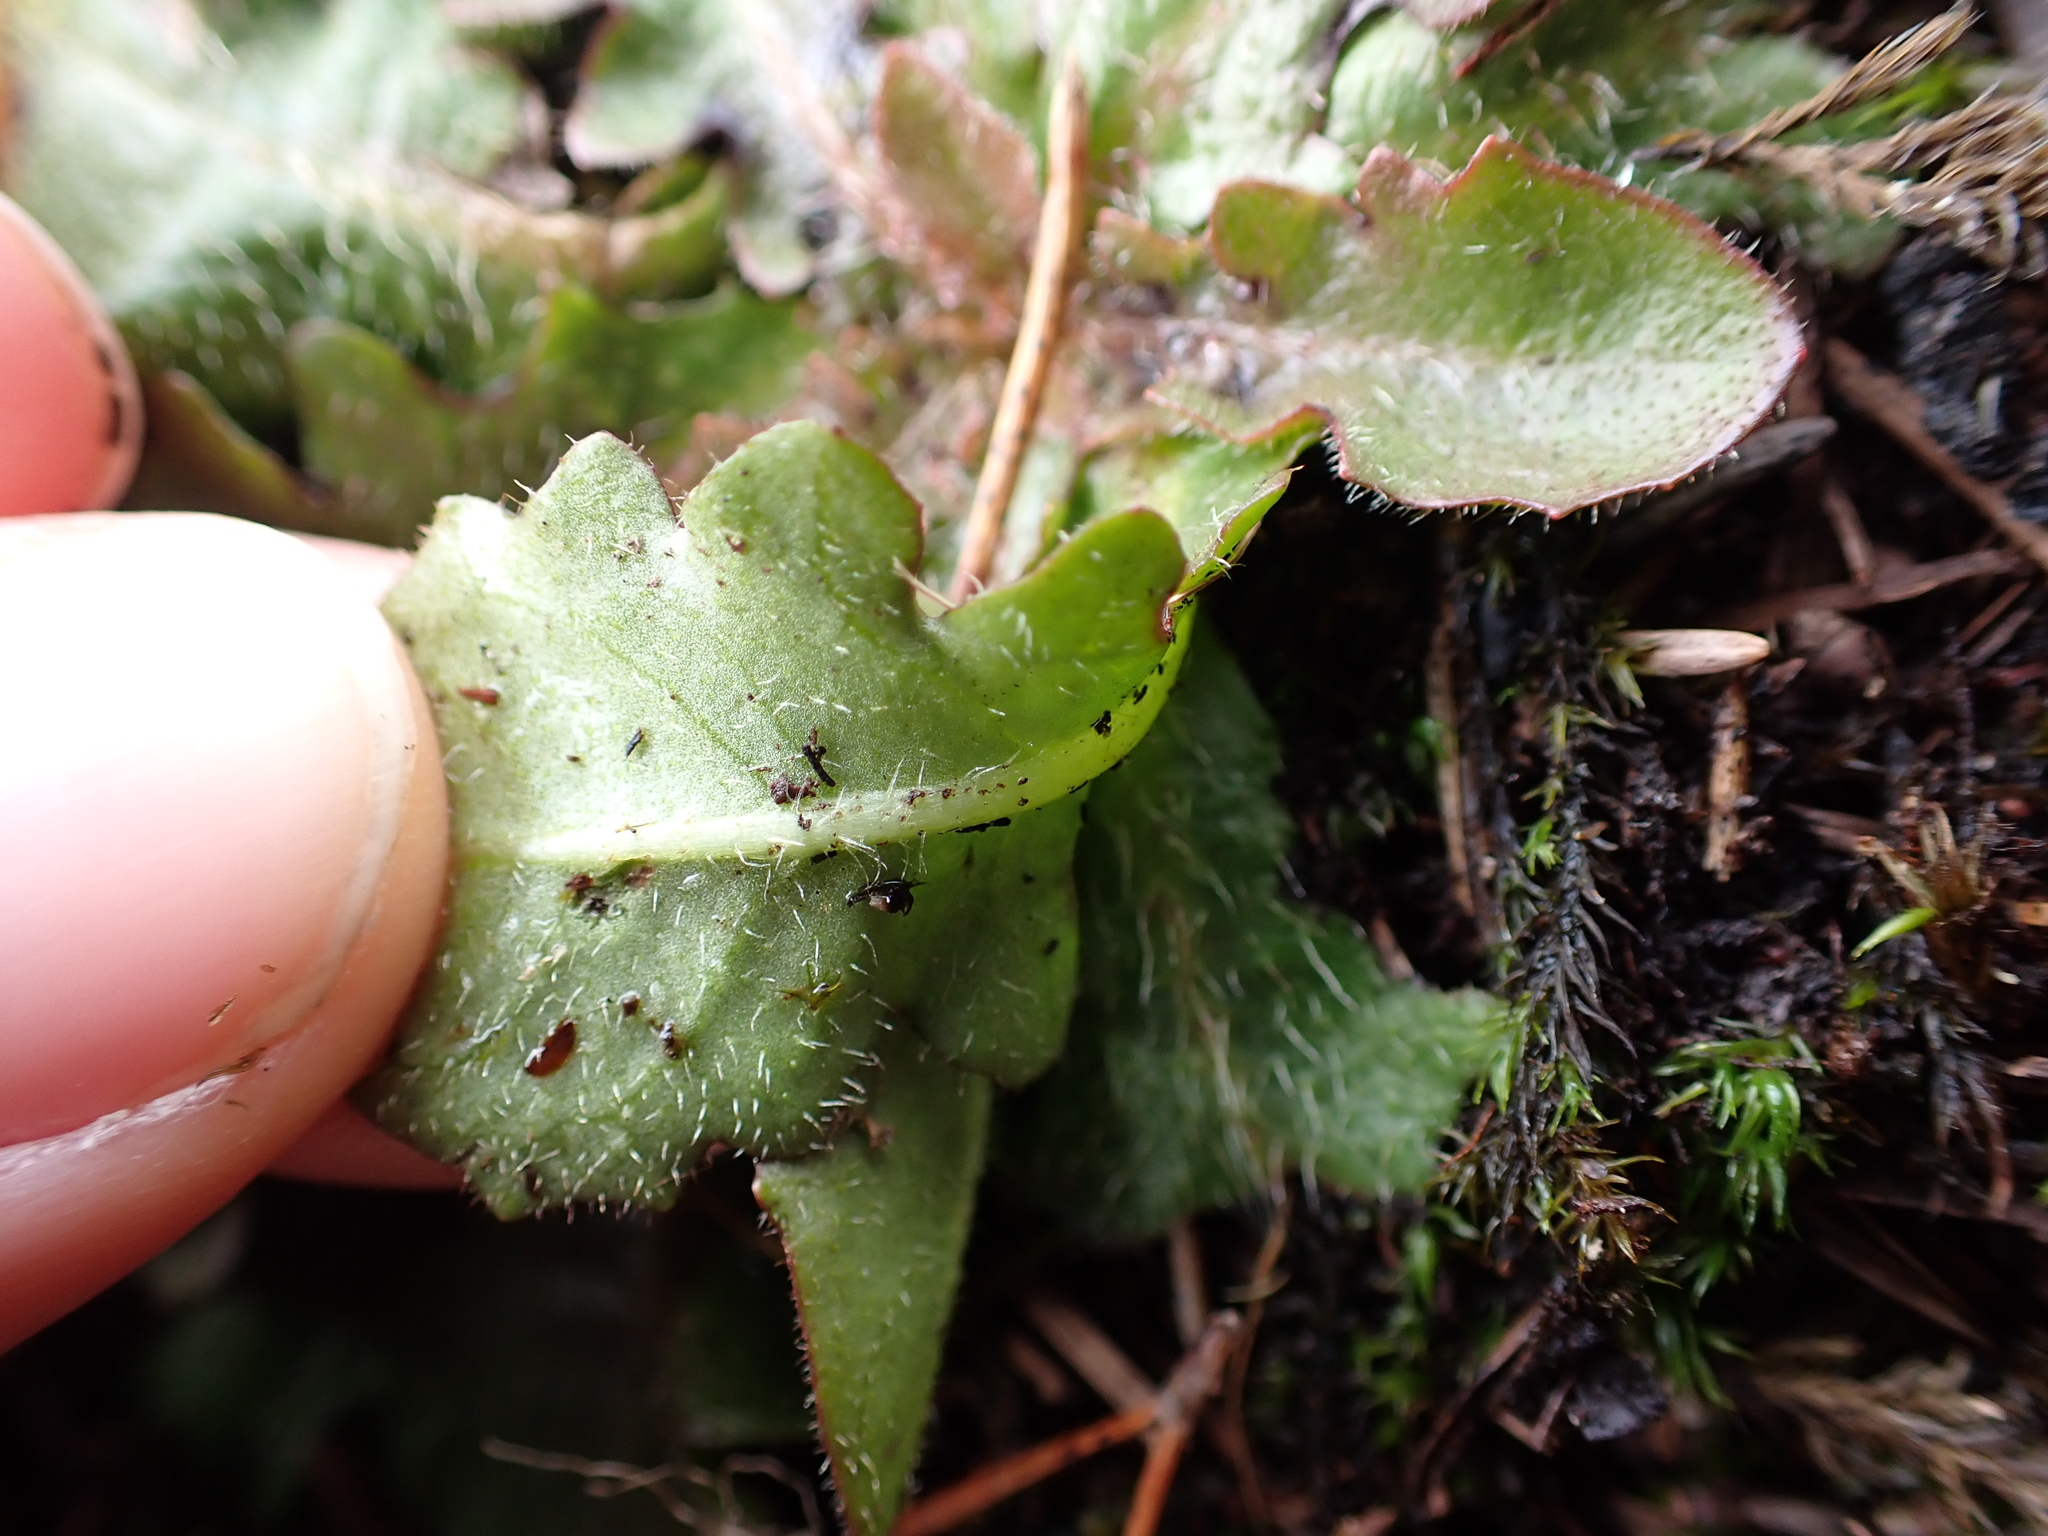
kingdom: Plantae
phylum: Tracheophyta
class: Magnoliopsida
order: Asterales
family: Asteraceae
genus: Hypochaeris
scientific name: Hypochaeris radicata
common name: Flatweed
